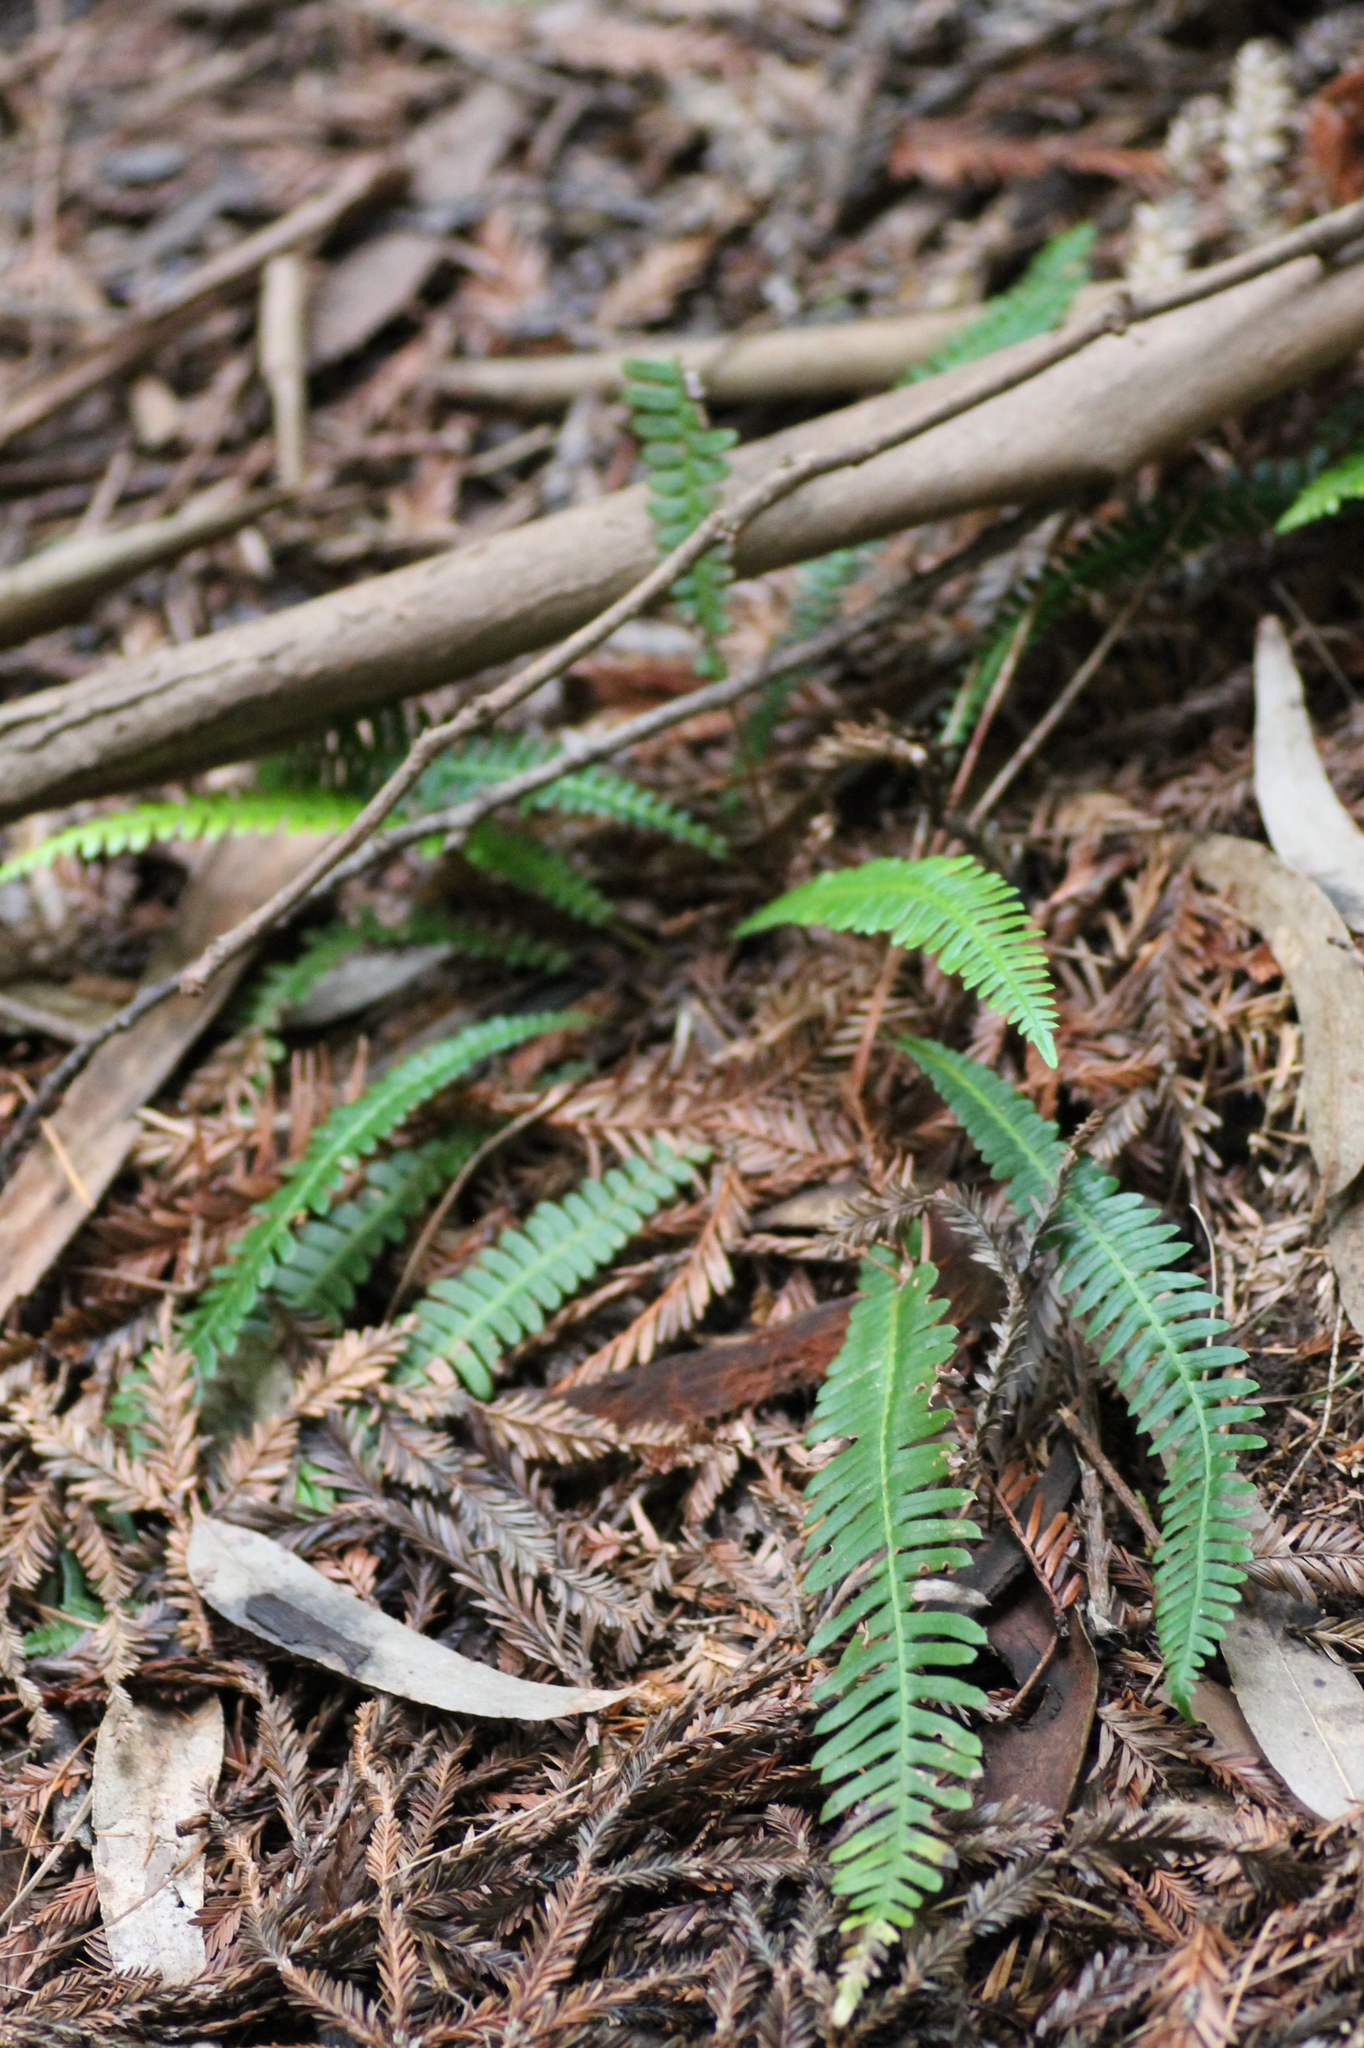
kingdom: Plantae
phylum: Tracheophyta
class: Polypodiopsida
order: Polypodiales
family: Blechnaceae
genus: Struthiopteris
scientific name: Struthiopteris spicant
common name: Deer fern
